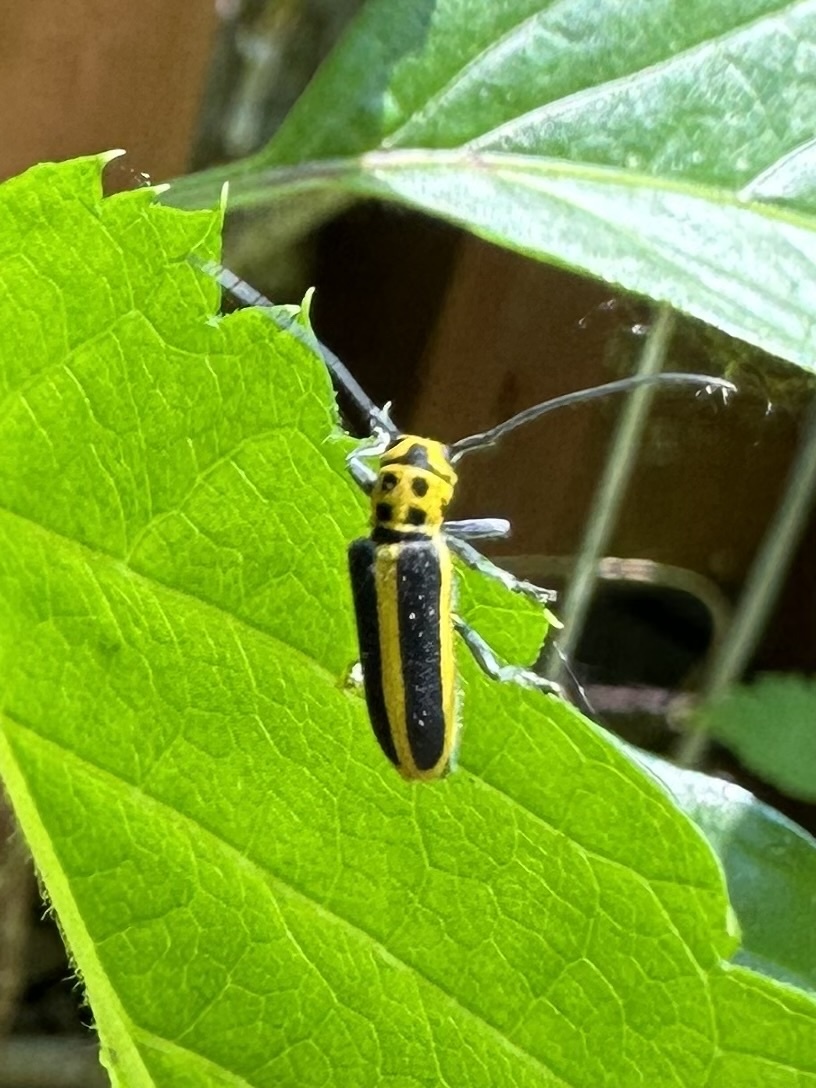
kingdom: Animalia
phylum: Arthropoda
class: Insecta
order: Coleoptera
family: Cerambycidae
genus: Saperda
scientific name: Saperda puncticollis
